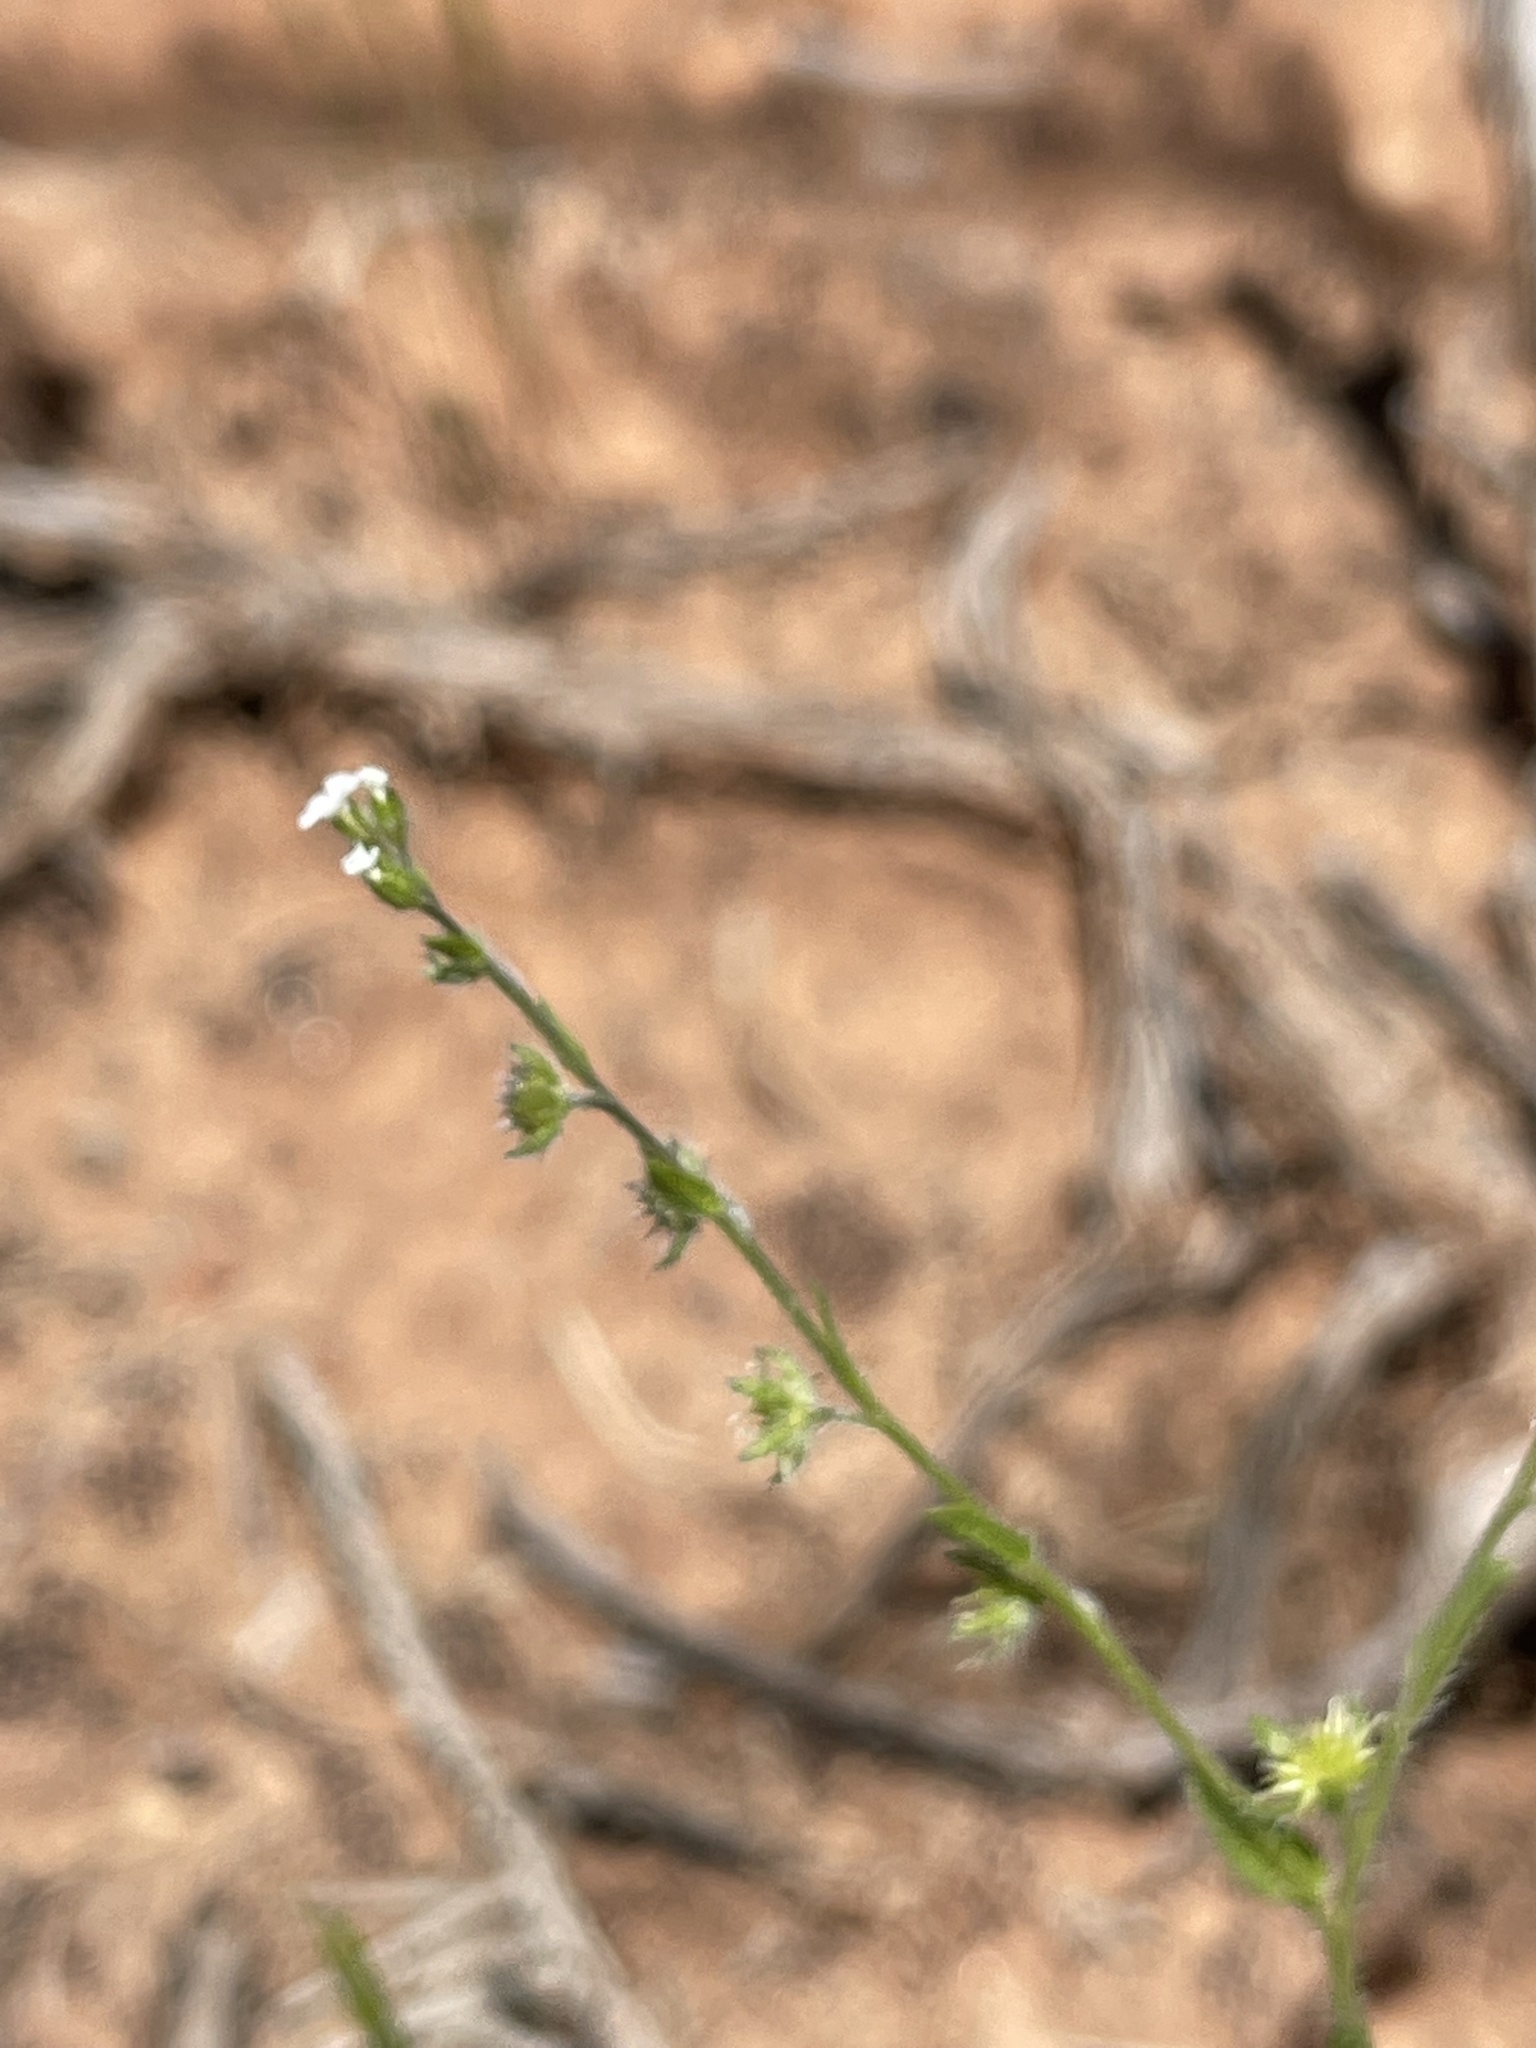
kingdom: Plantae
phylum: Tracheophyta
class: Magnoliopsida
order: Boraginales
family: Boraginaceae
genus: Lappula
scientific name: Lappula occidentalis
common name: Western stickseed
